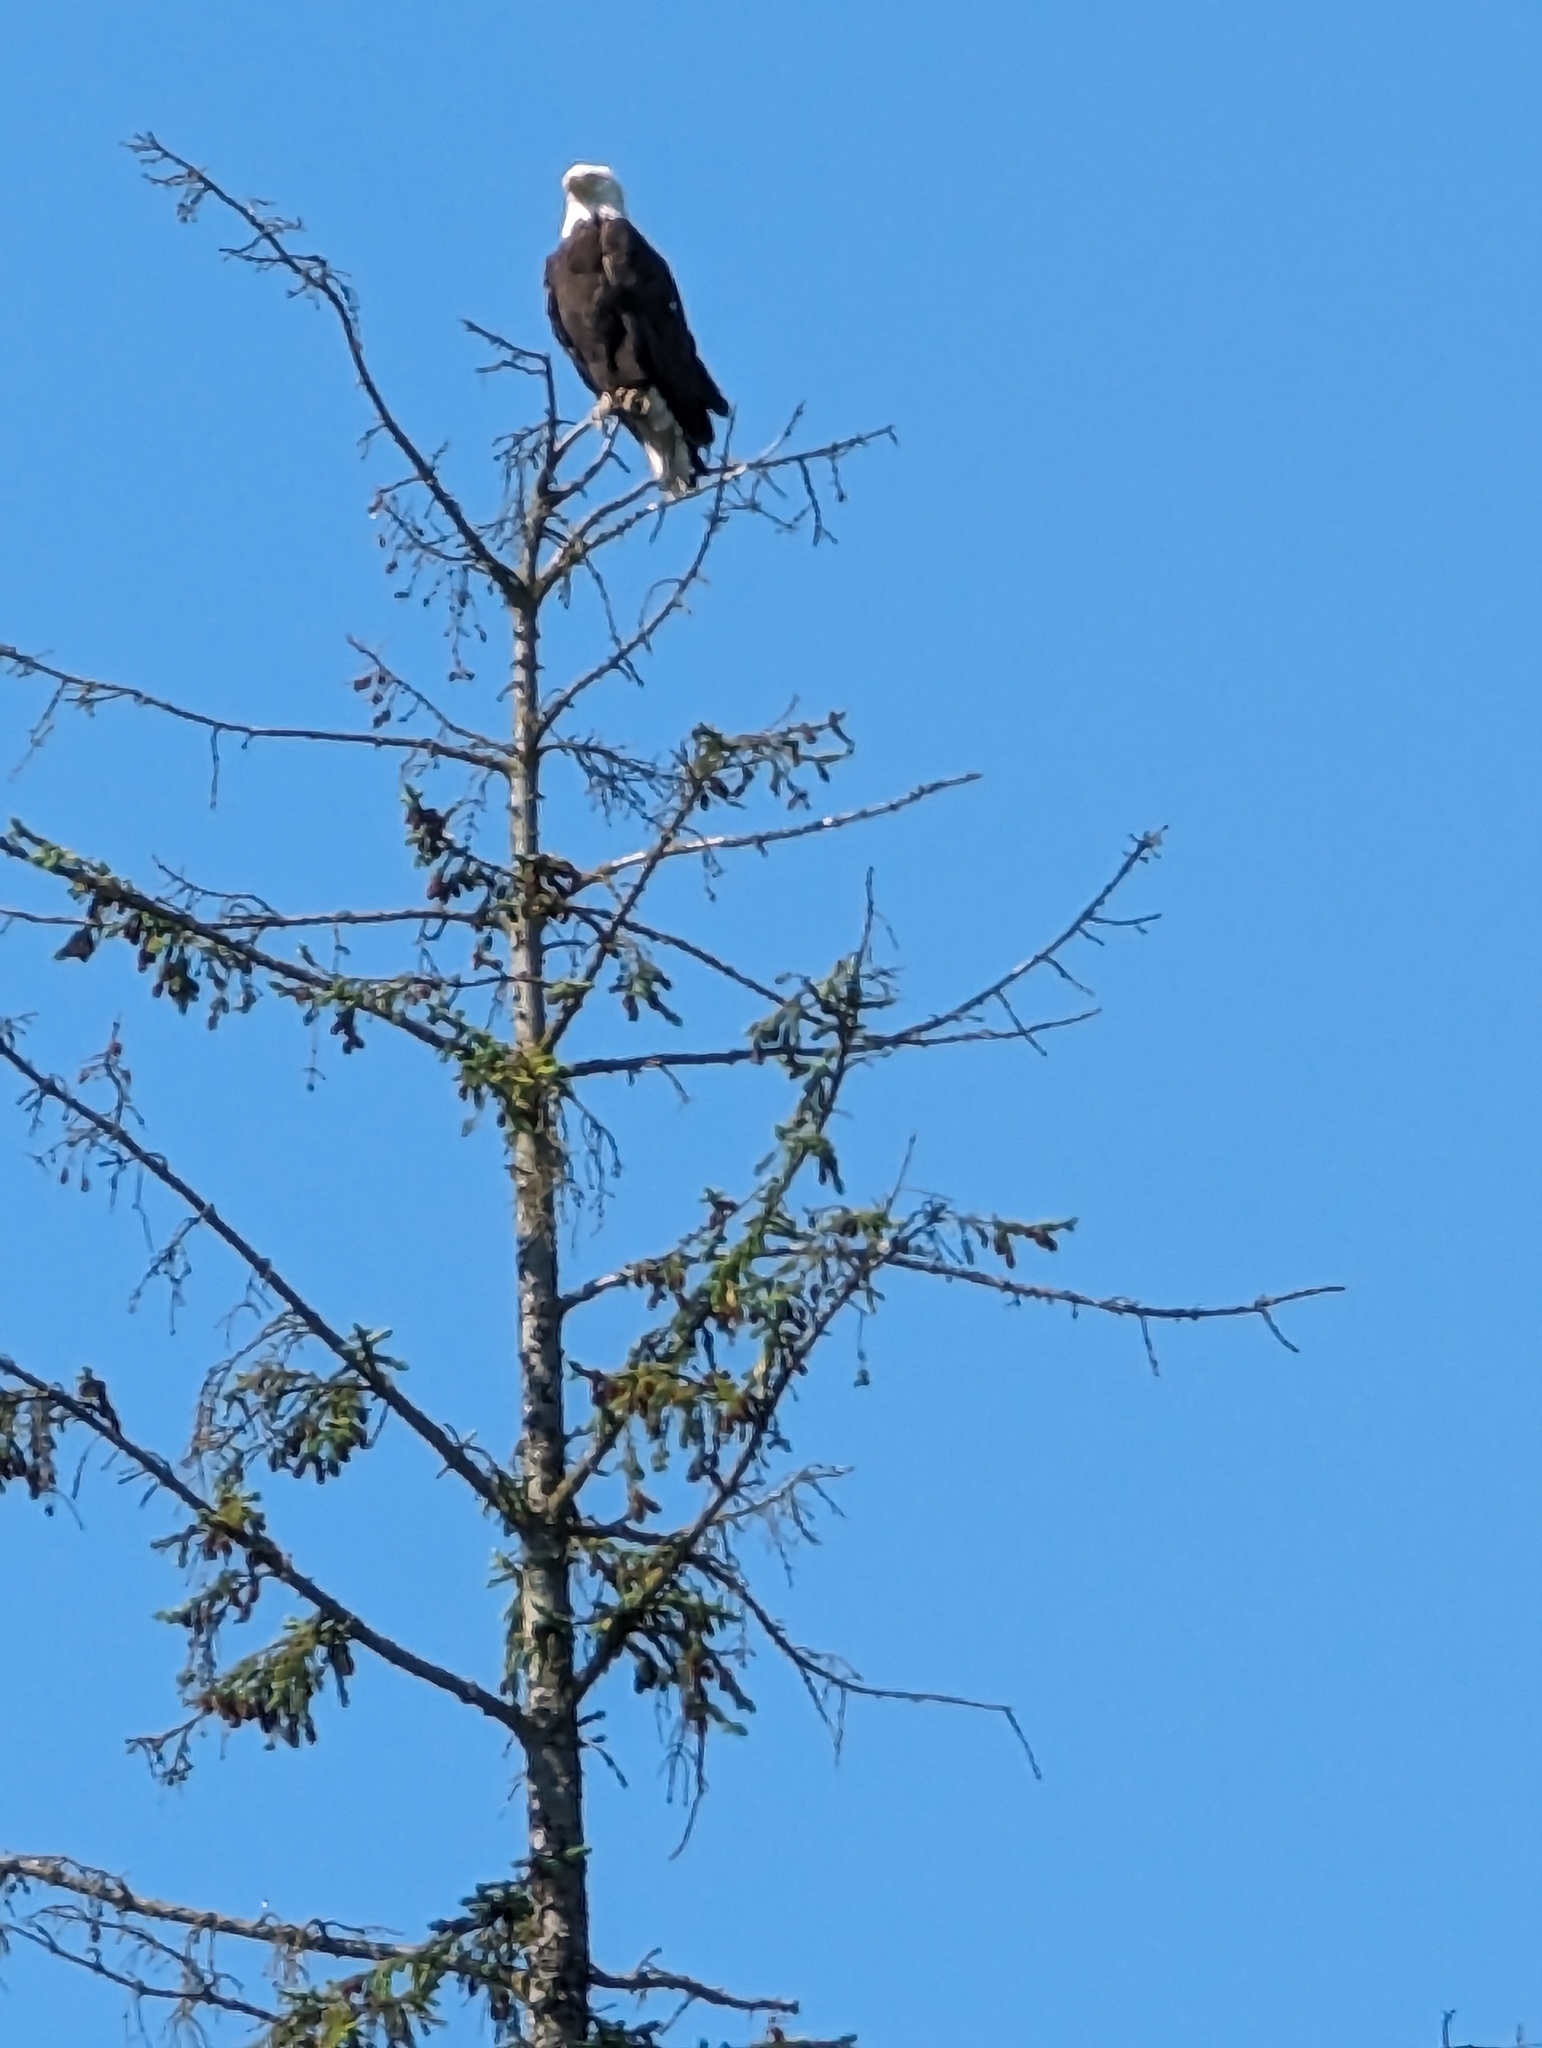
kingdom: Animalia
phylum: Chordata
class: Aves
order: Accipitriformes
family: Accipitridae
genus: Haliaeetus
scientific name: Haliaeetus leucocephalus
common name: Bald eagle
